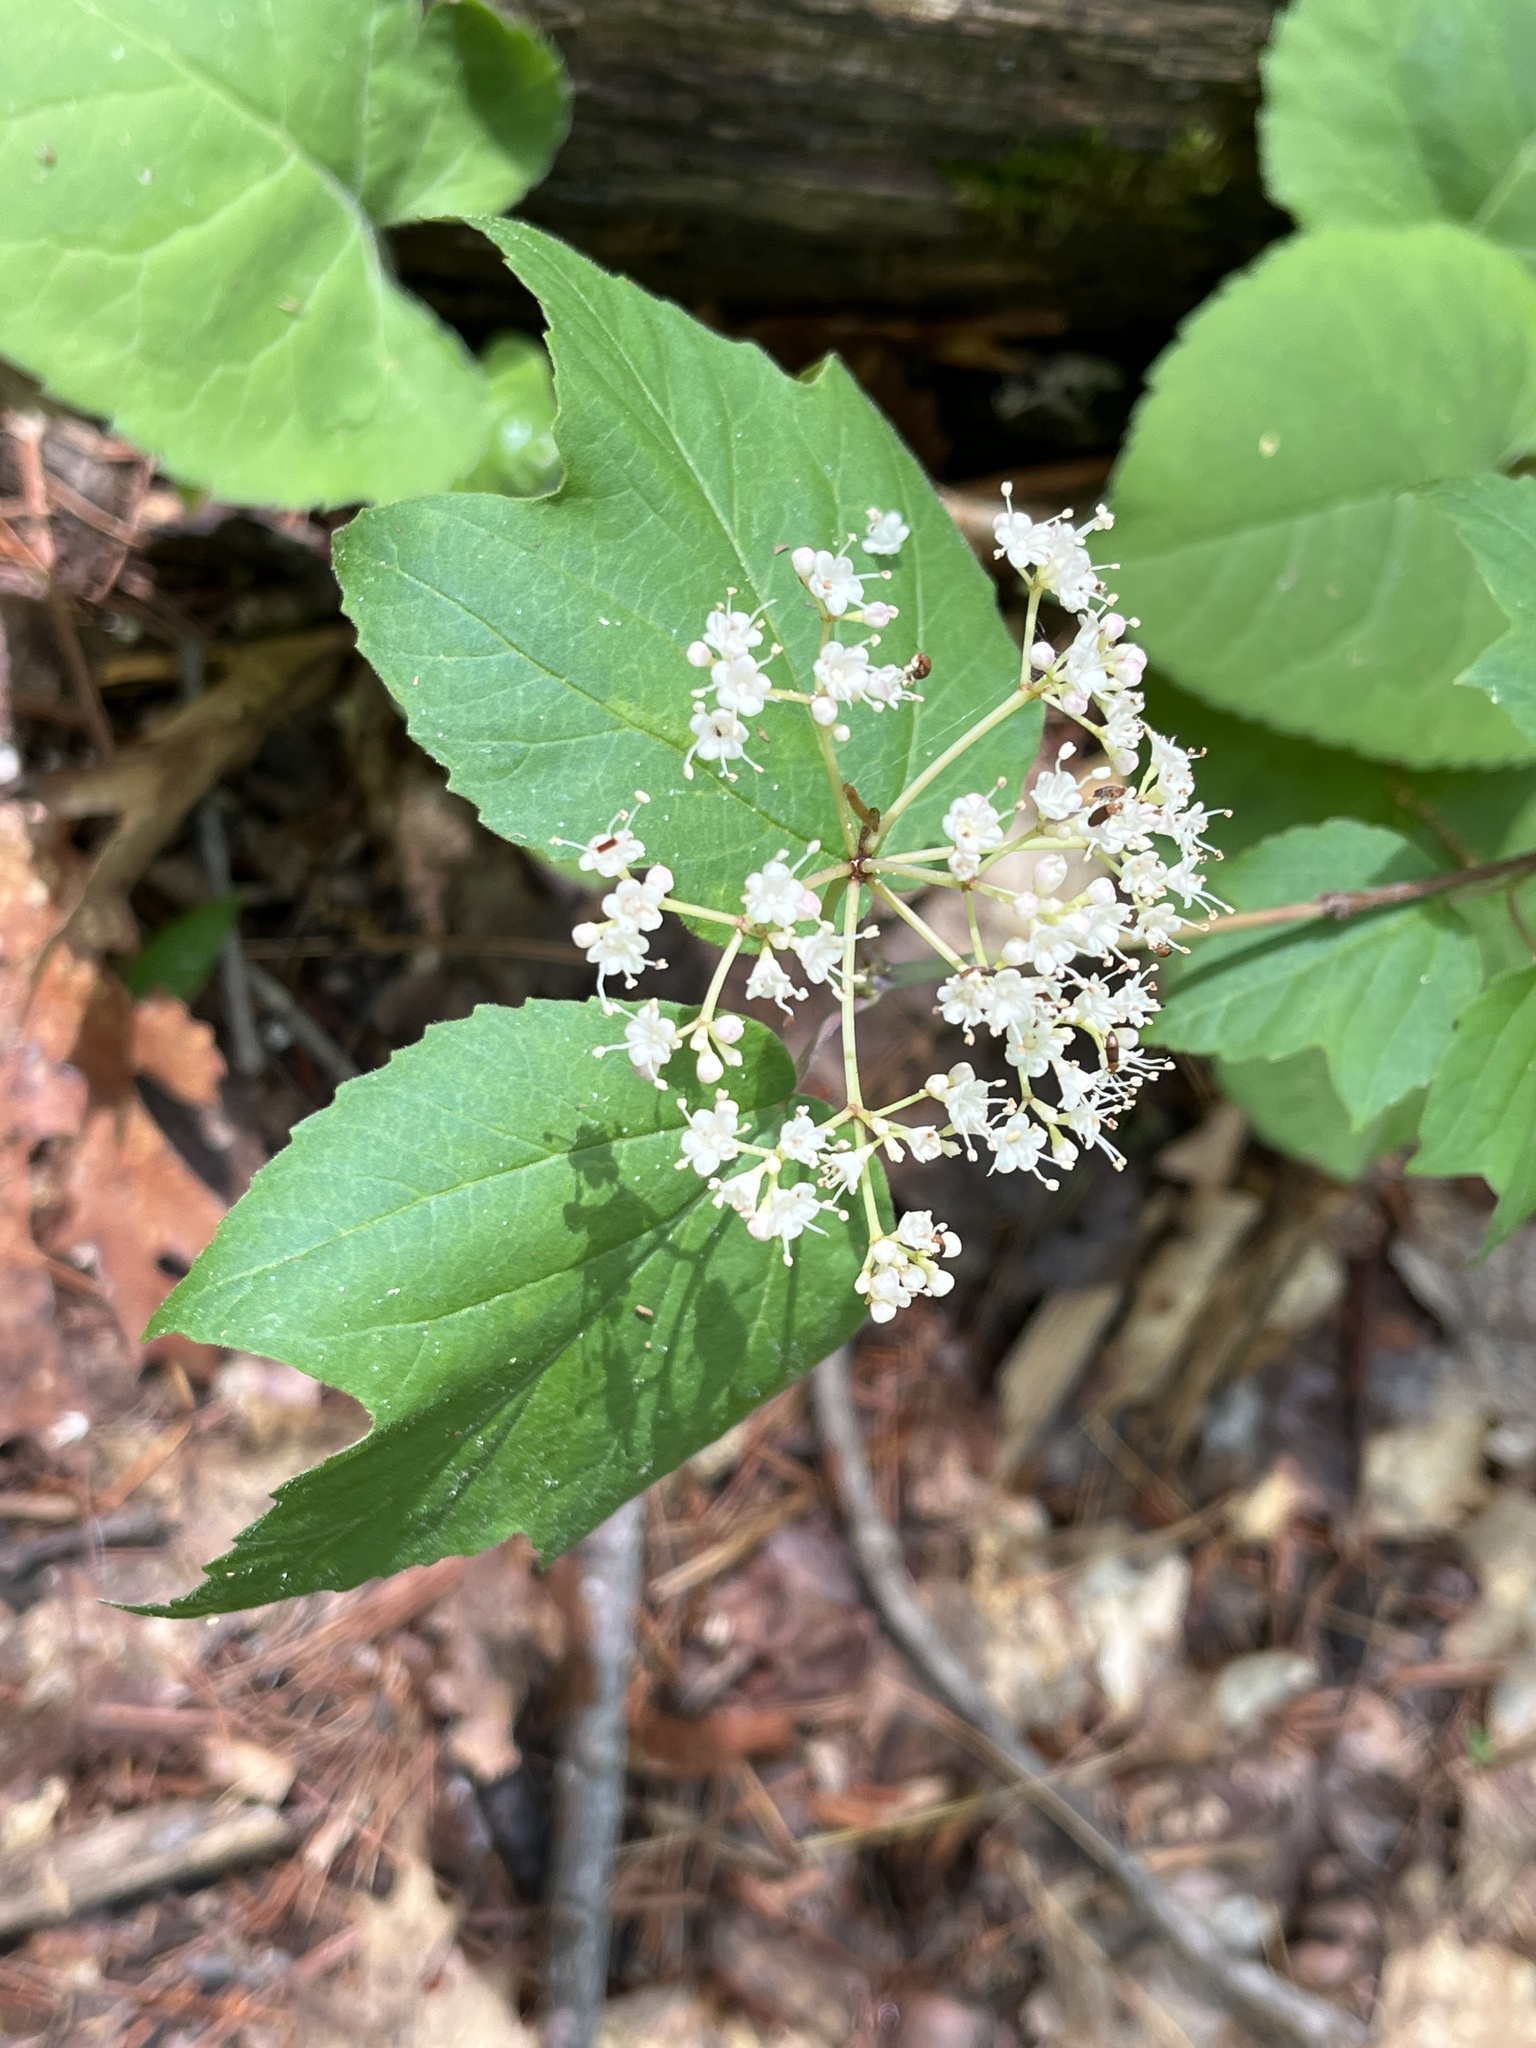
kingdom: Plantae
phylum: Tracheophyta
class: Magnoliopsida
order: Dipsacales
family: Viburnaceae
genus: Viburnum
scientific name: Viburnum acerifolium
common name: Dockmackie
